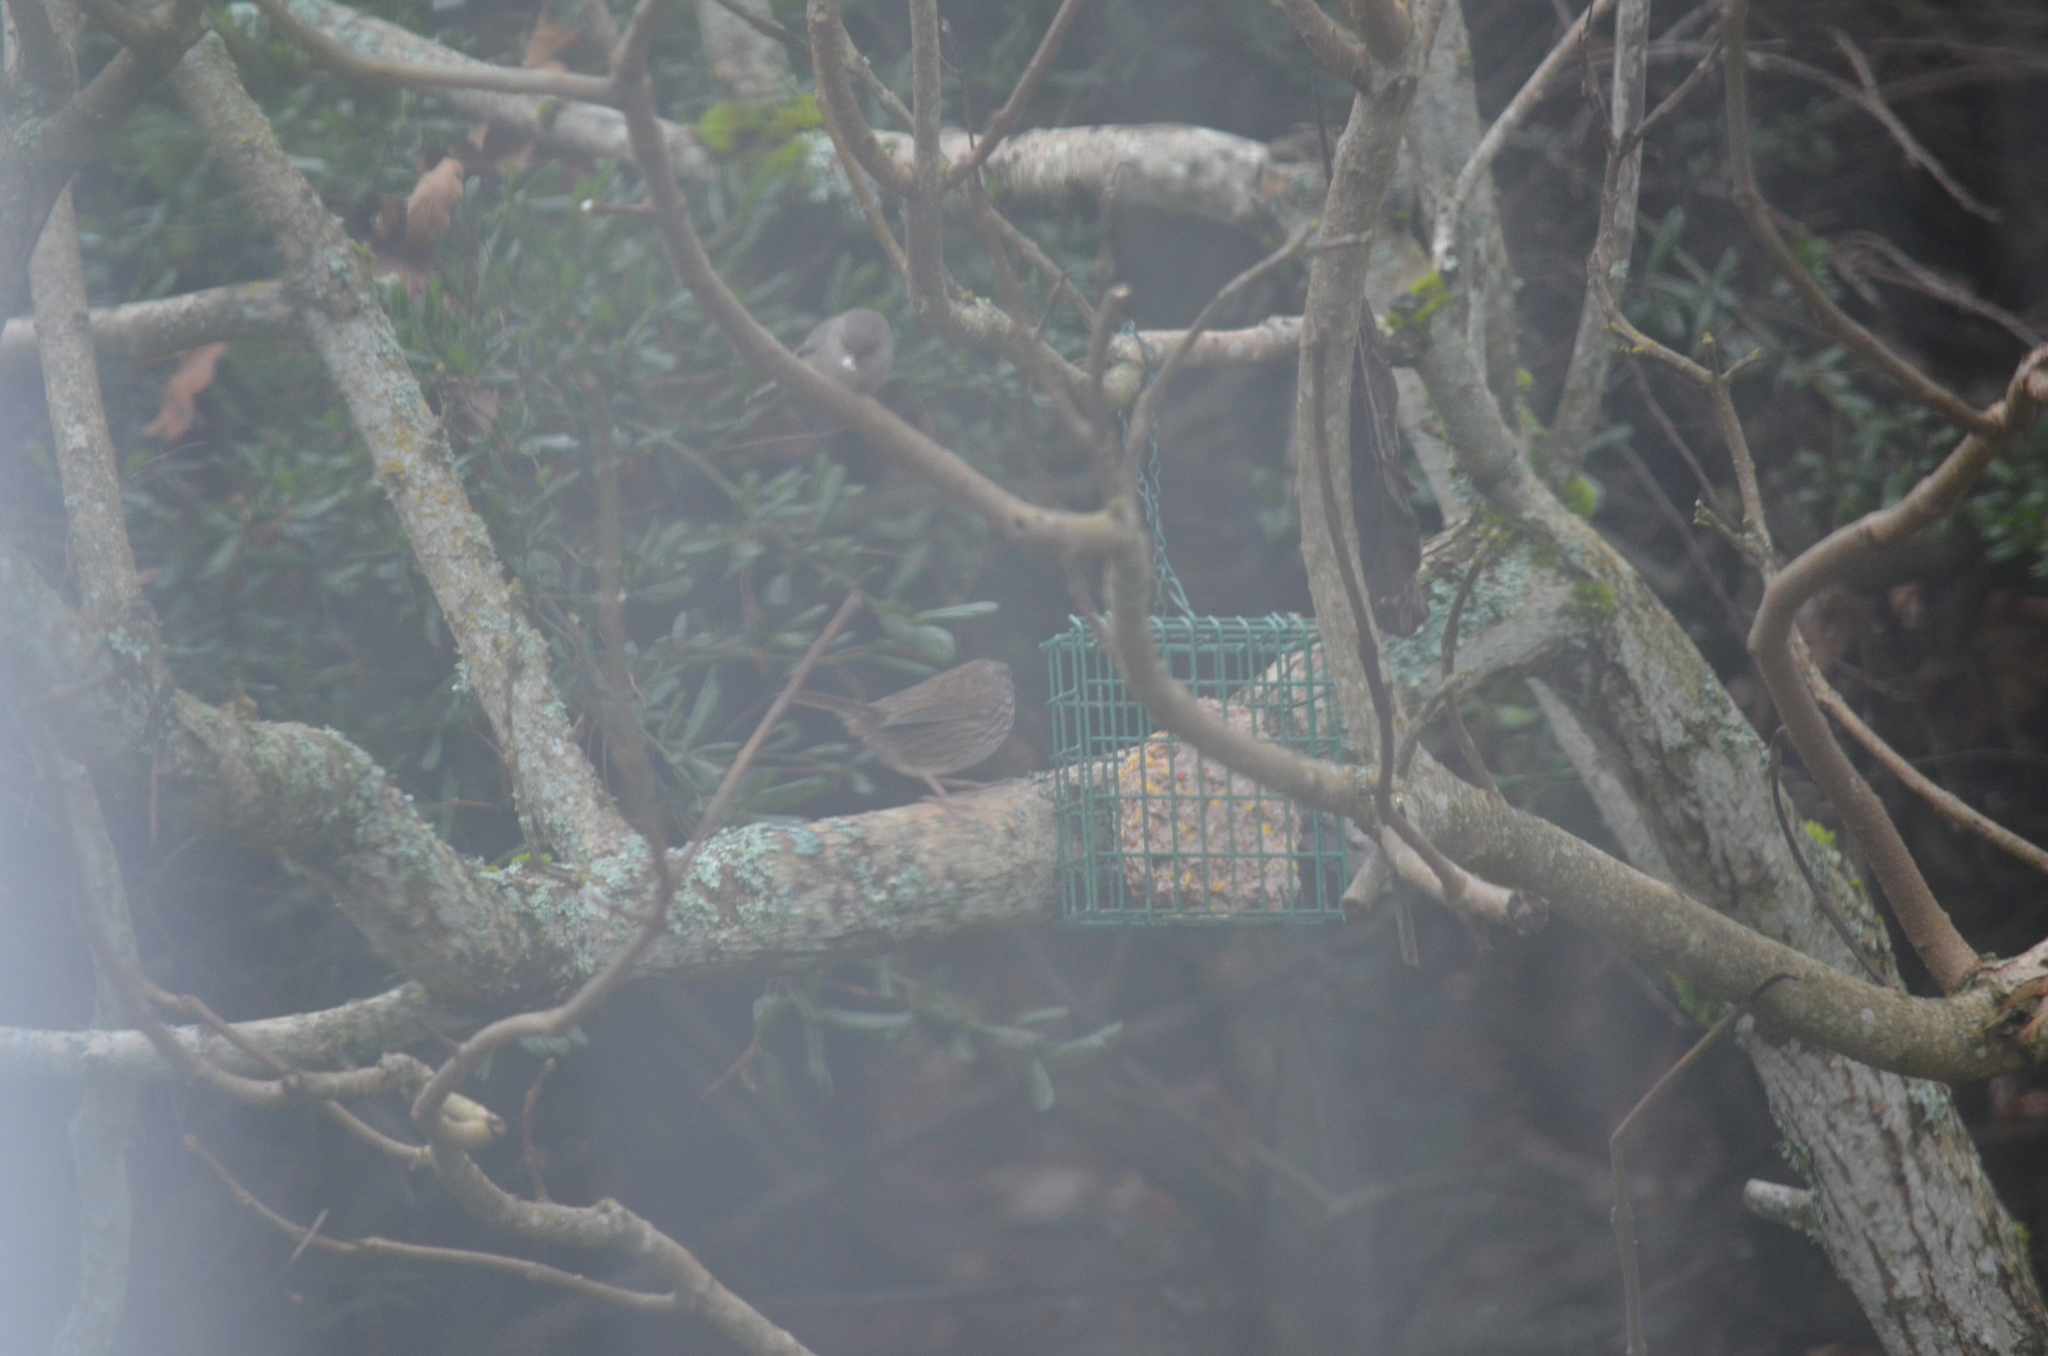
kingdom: Animalia
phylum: Chordata
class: Aves
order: Passeriformes
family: Passerellidae
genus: Melospiza
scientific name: Melospiza melodia
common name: Song sparrow
